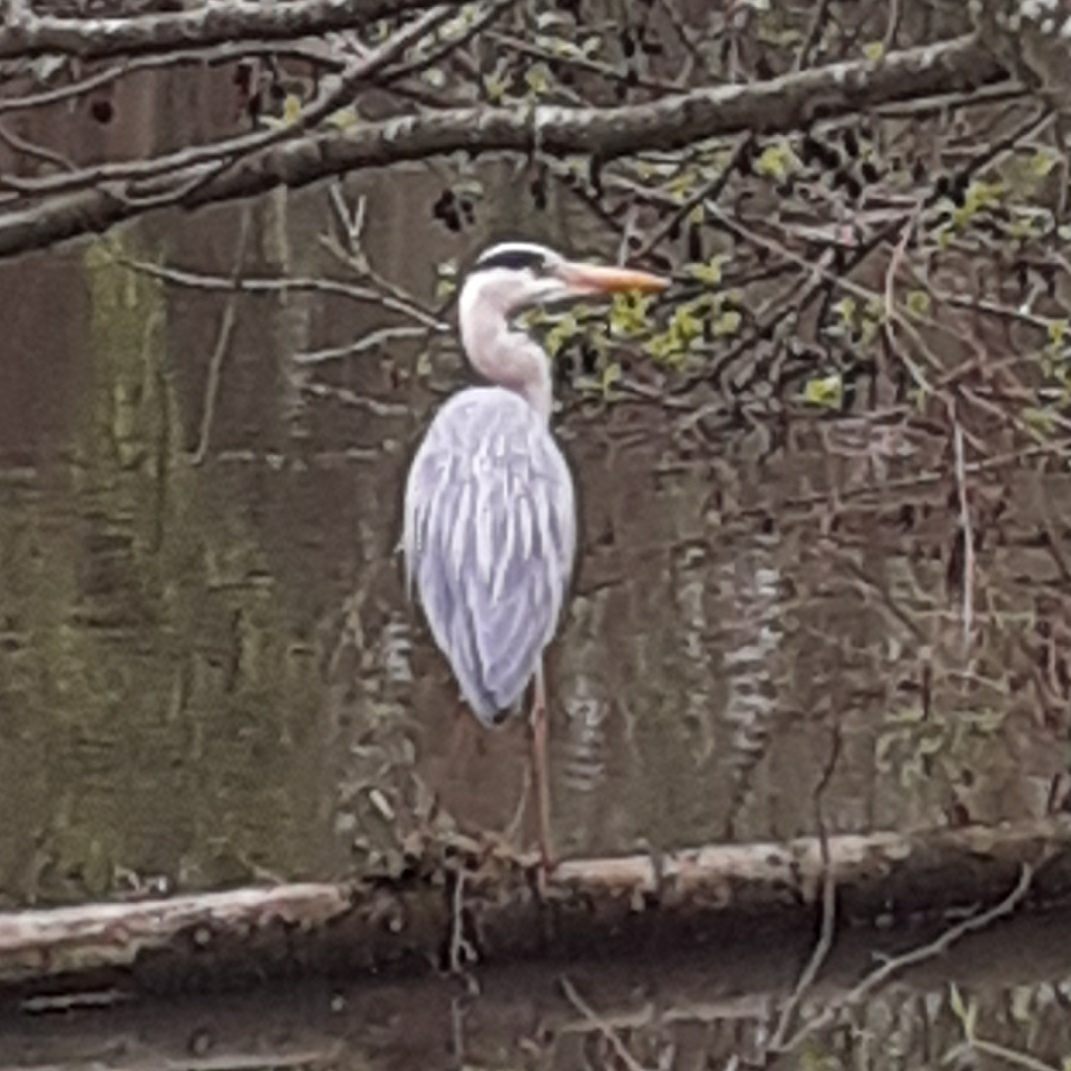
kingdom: Animalia
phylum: Chordata
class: Aves
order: Pelecaniformes
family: Ardeidae
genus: Ardea
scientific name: Ardea cinerea
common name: Grey heron
